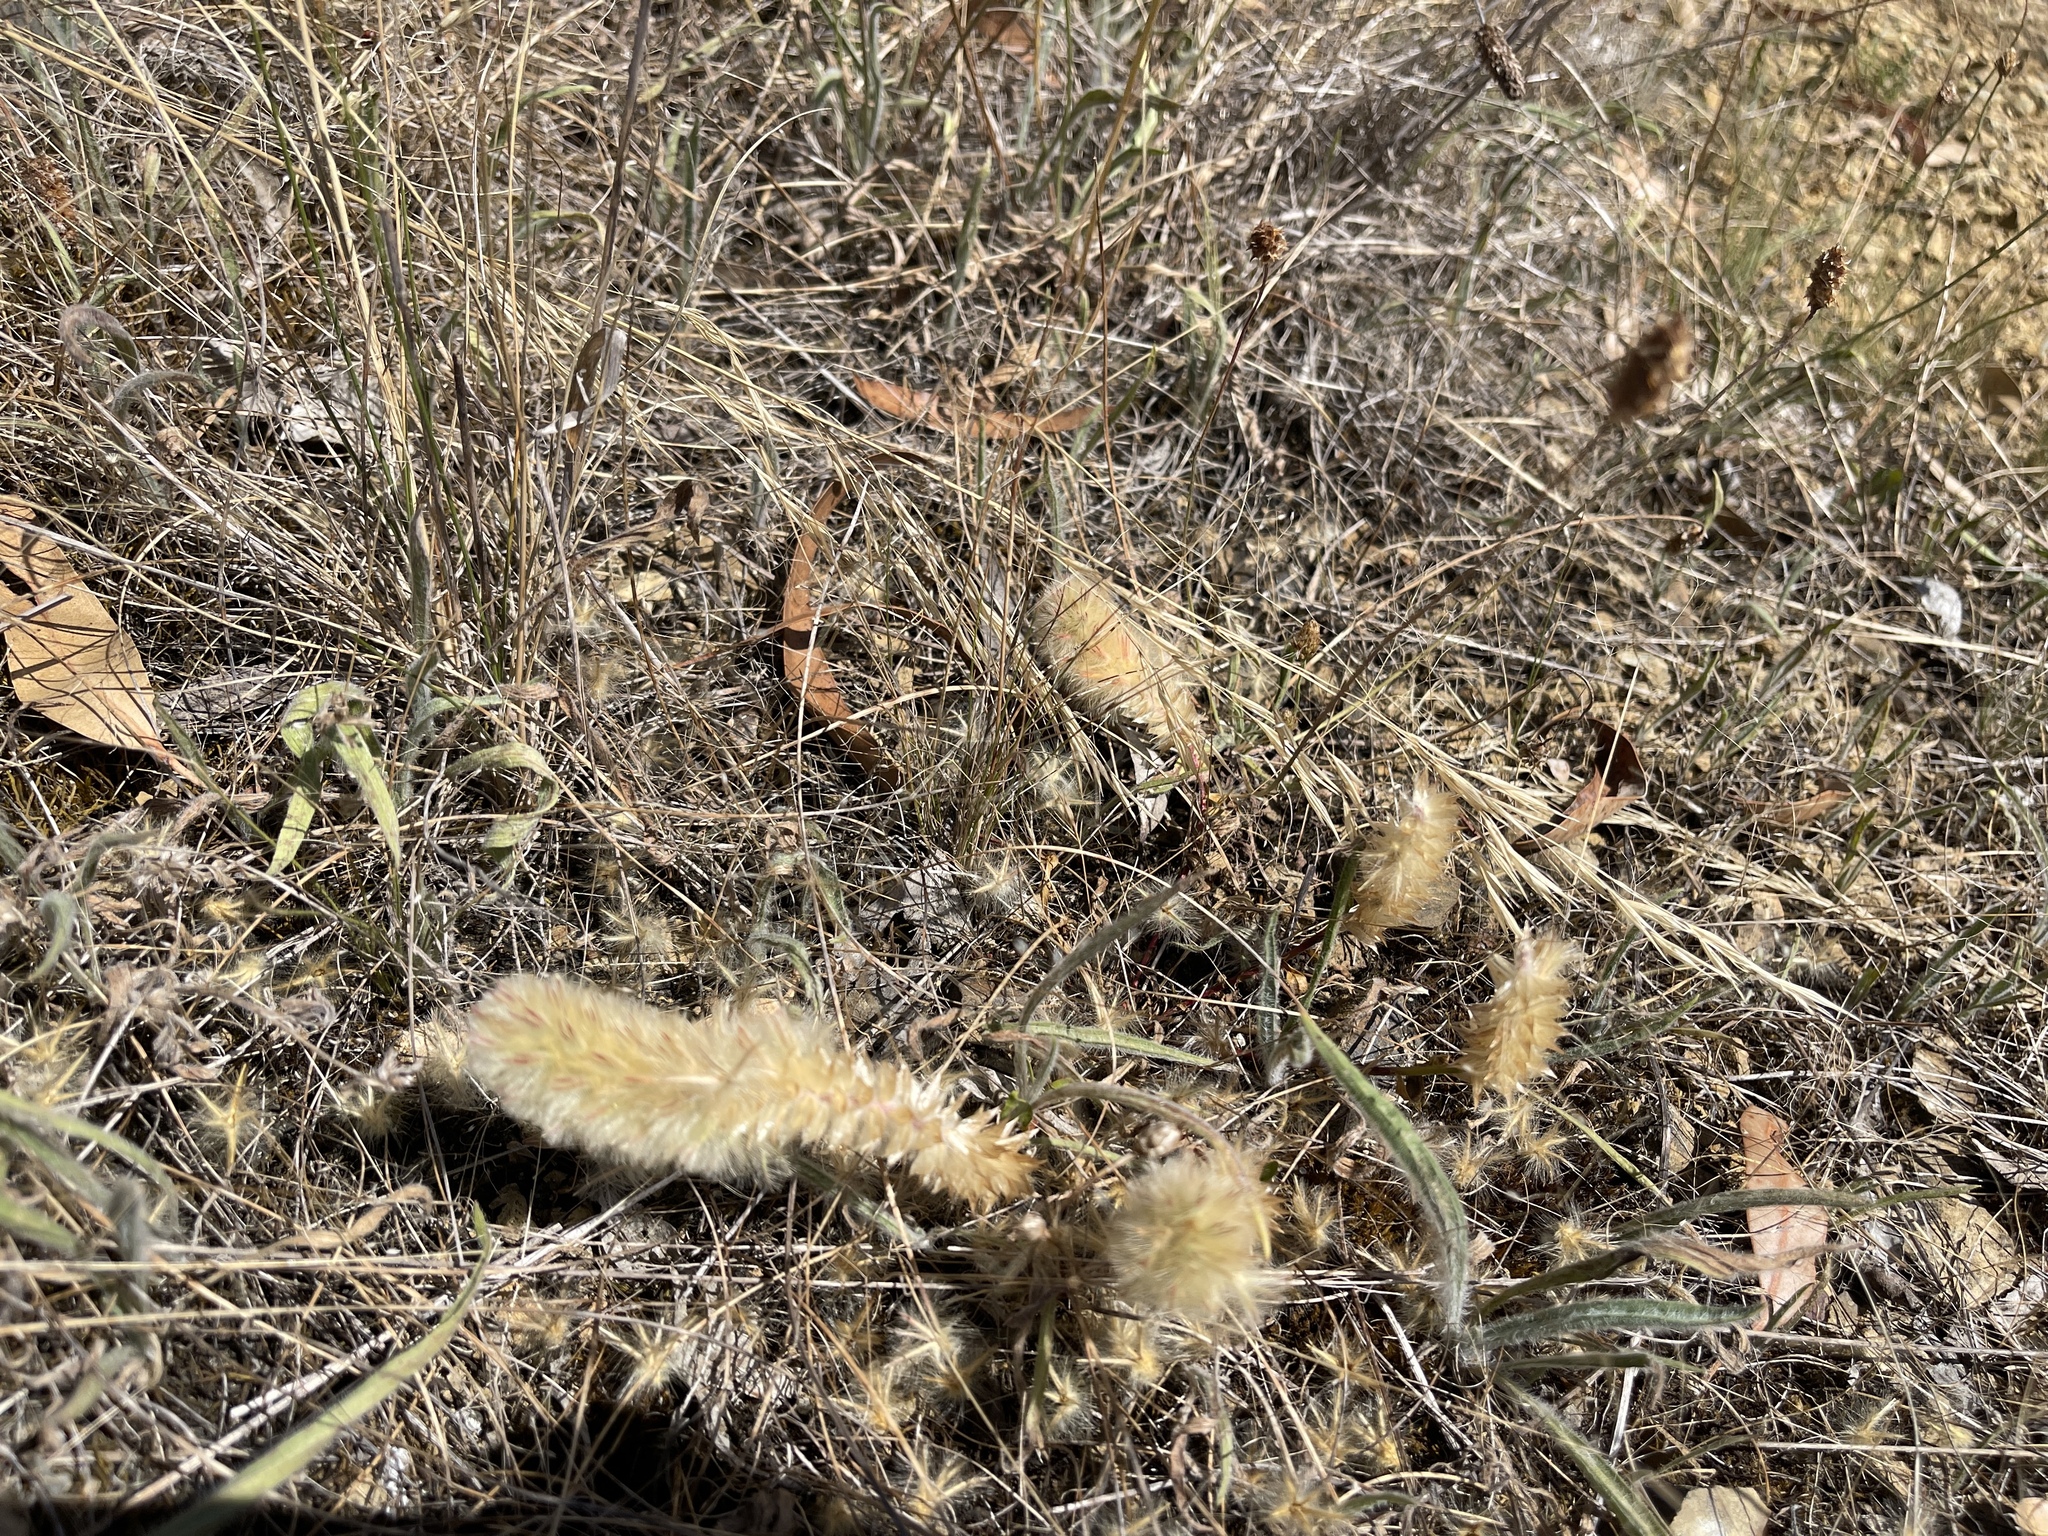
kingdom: Plantae
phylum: Tracheophyta
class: Magnoliopsida
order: Caryophyllales
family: Amaranthaceae
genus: Ptilotus
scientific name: Ptilotus spathulatus
